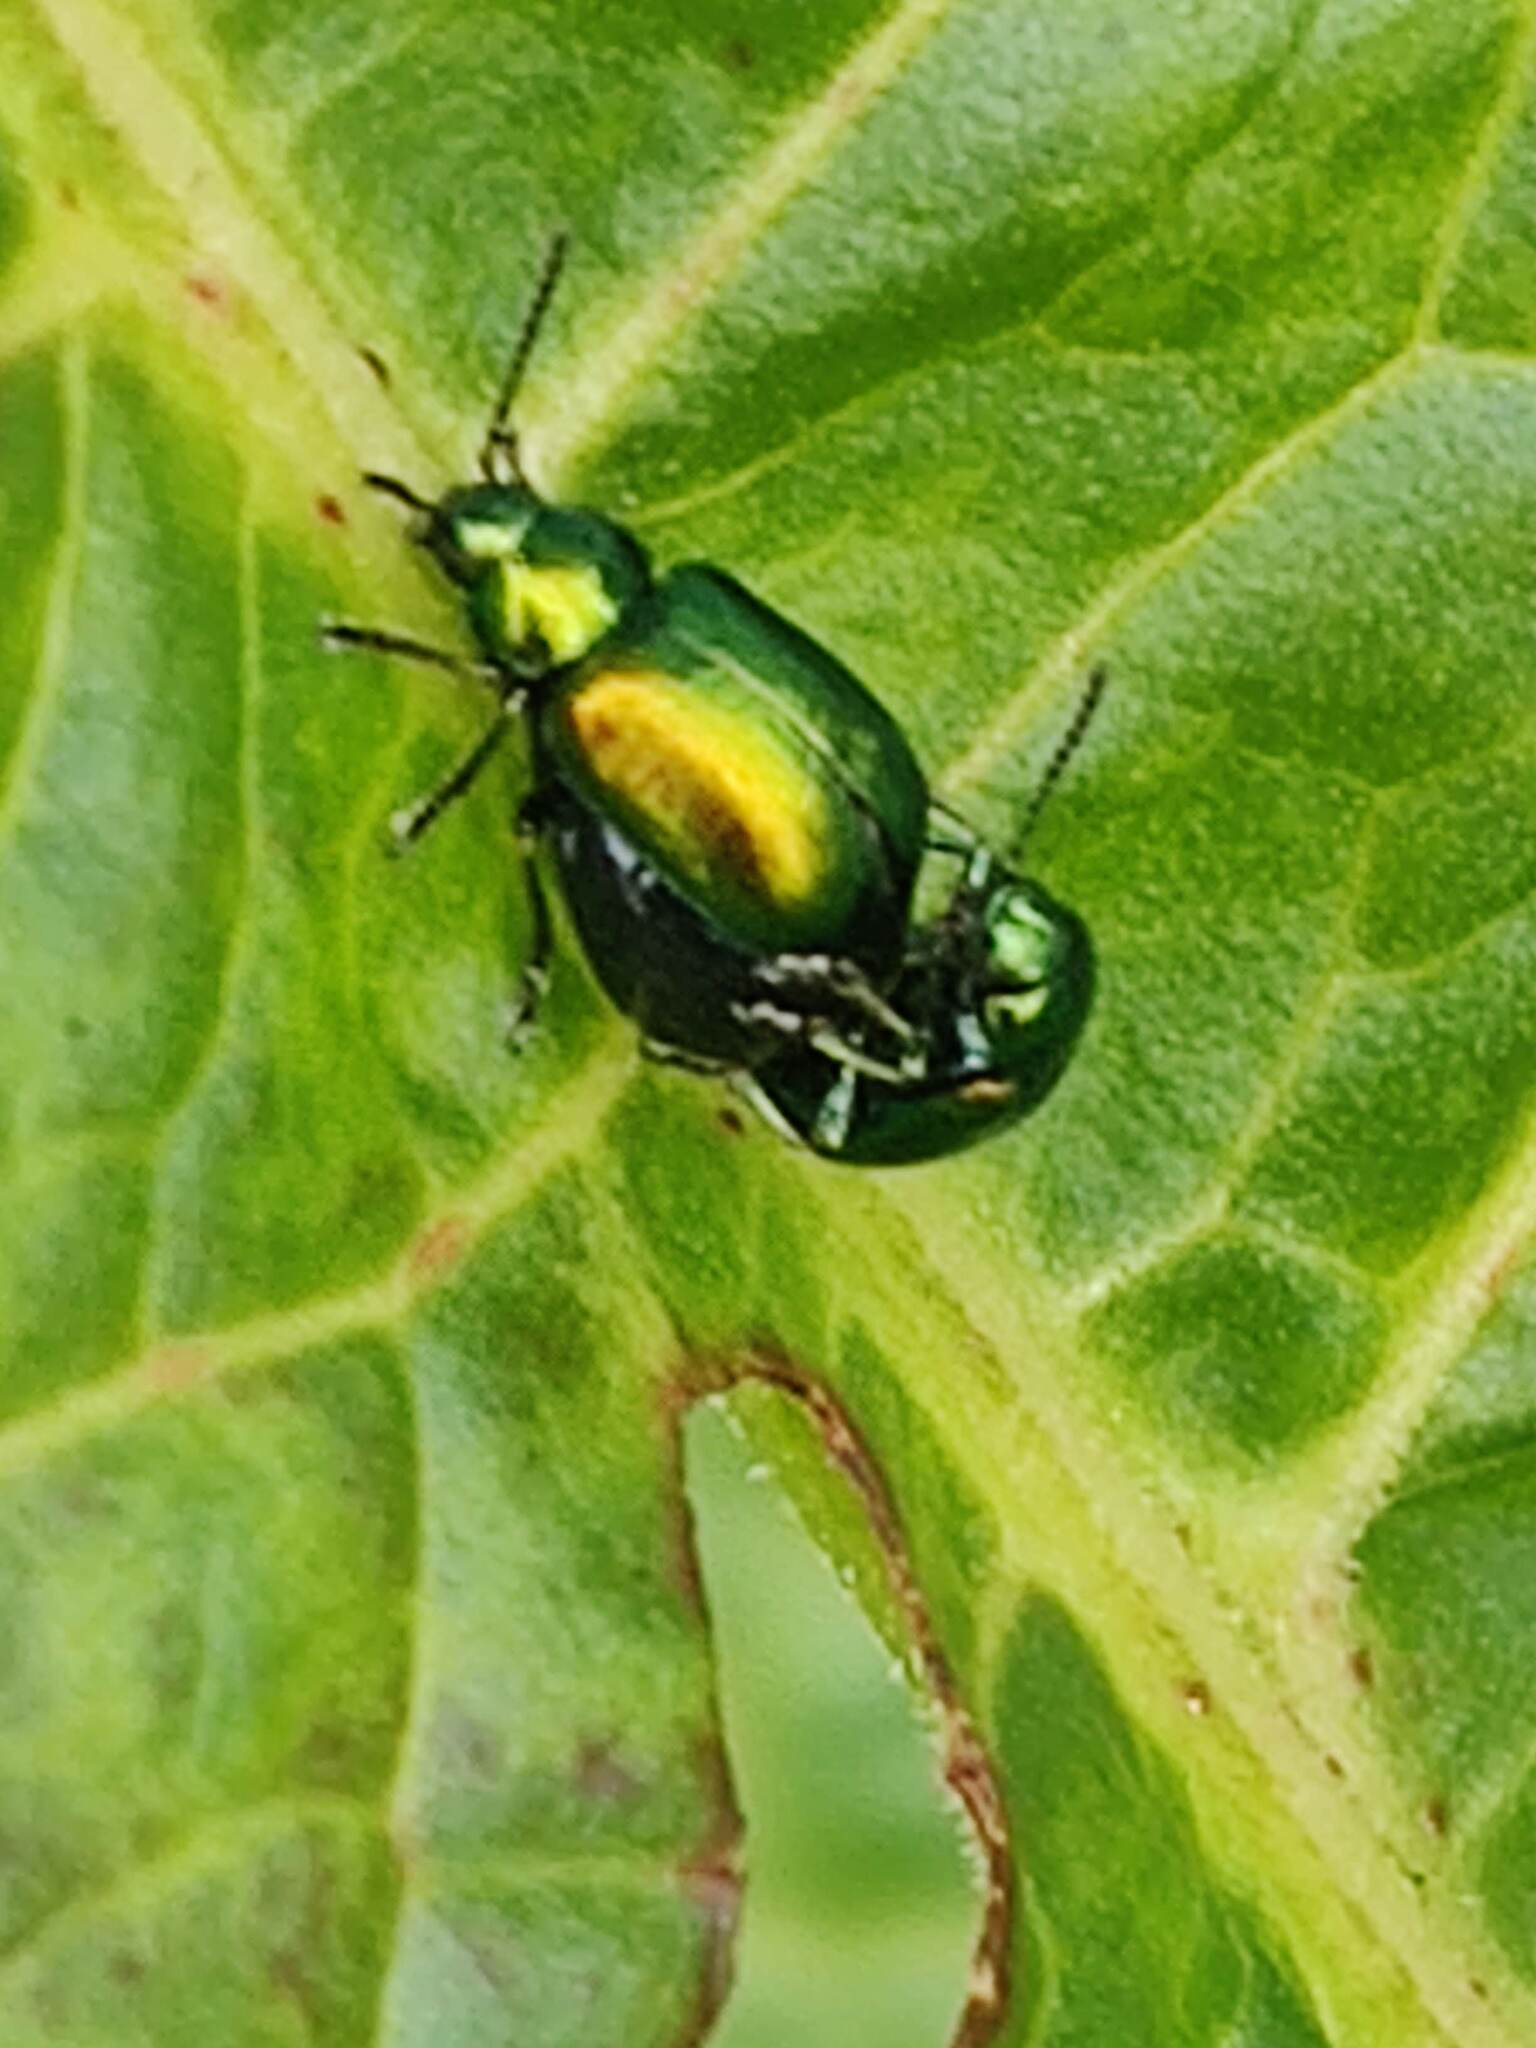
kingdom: Animalia
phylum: Arthropoda
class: Insecta
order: Coleoptera
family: Chrysomelidae
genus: Gastrophysa
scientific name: Gastrophysa viridula
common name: Green dock beetle
